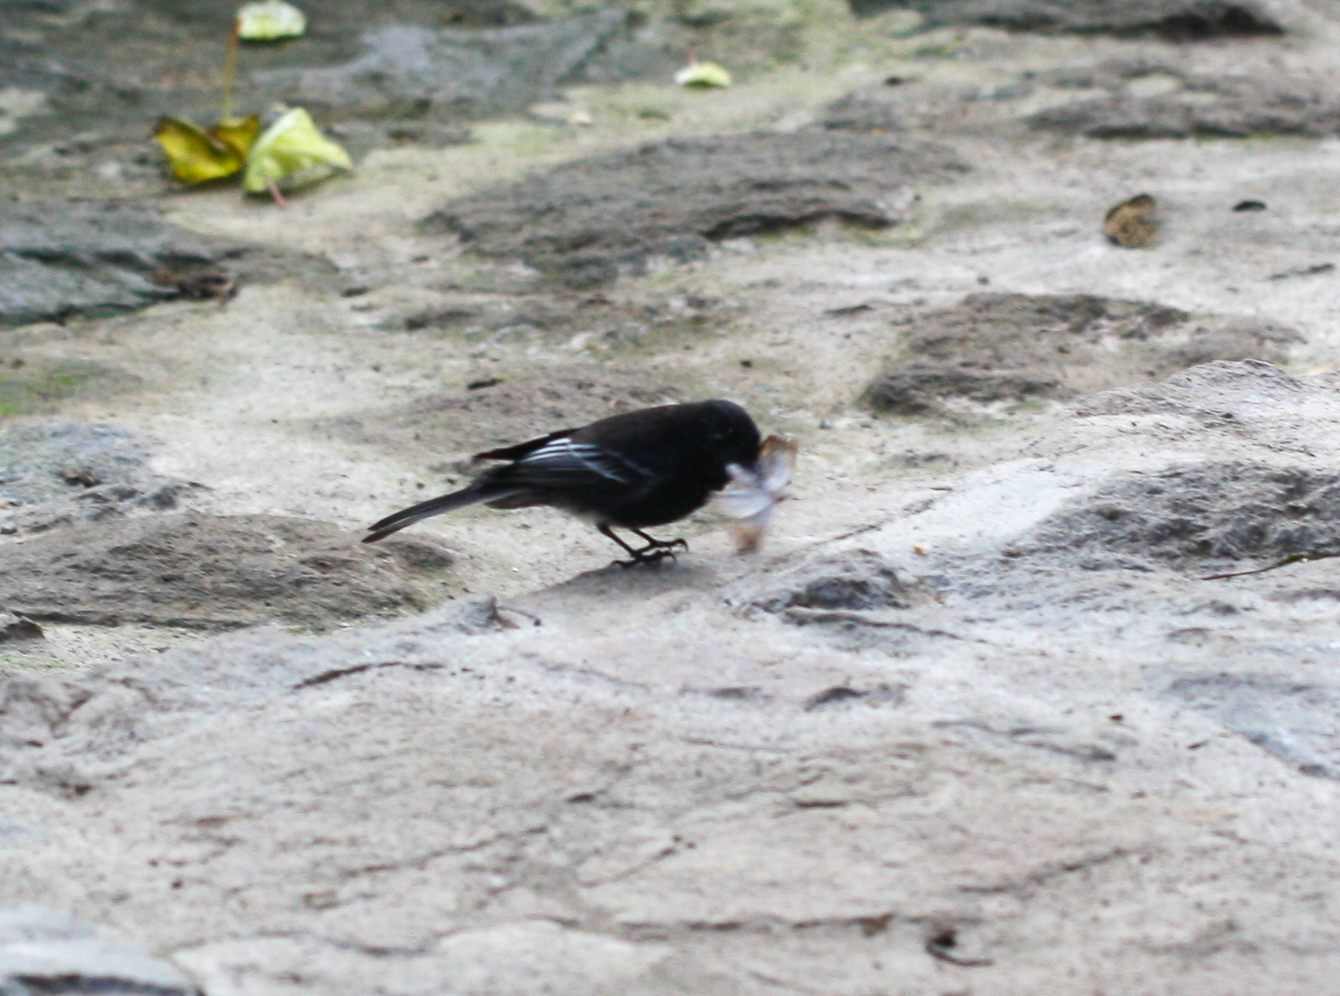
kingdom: Animalia
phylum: Chordata
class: Aves
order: Passeriformes
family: Tyrannidae
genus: Sayornis
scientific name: Sayornis nigricans
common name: Black phoebe
